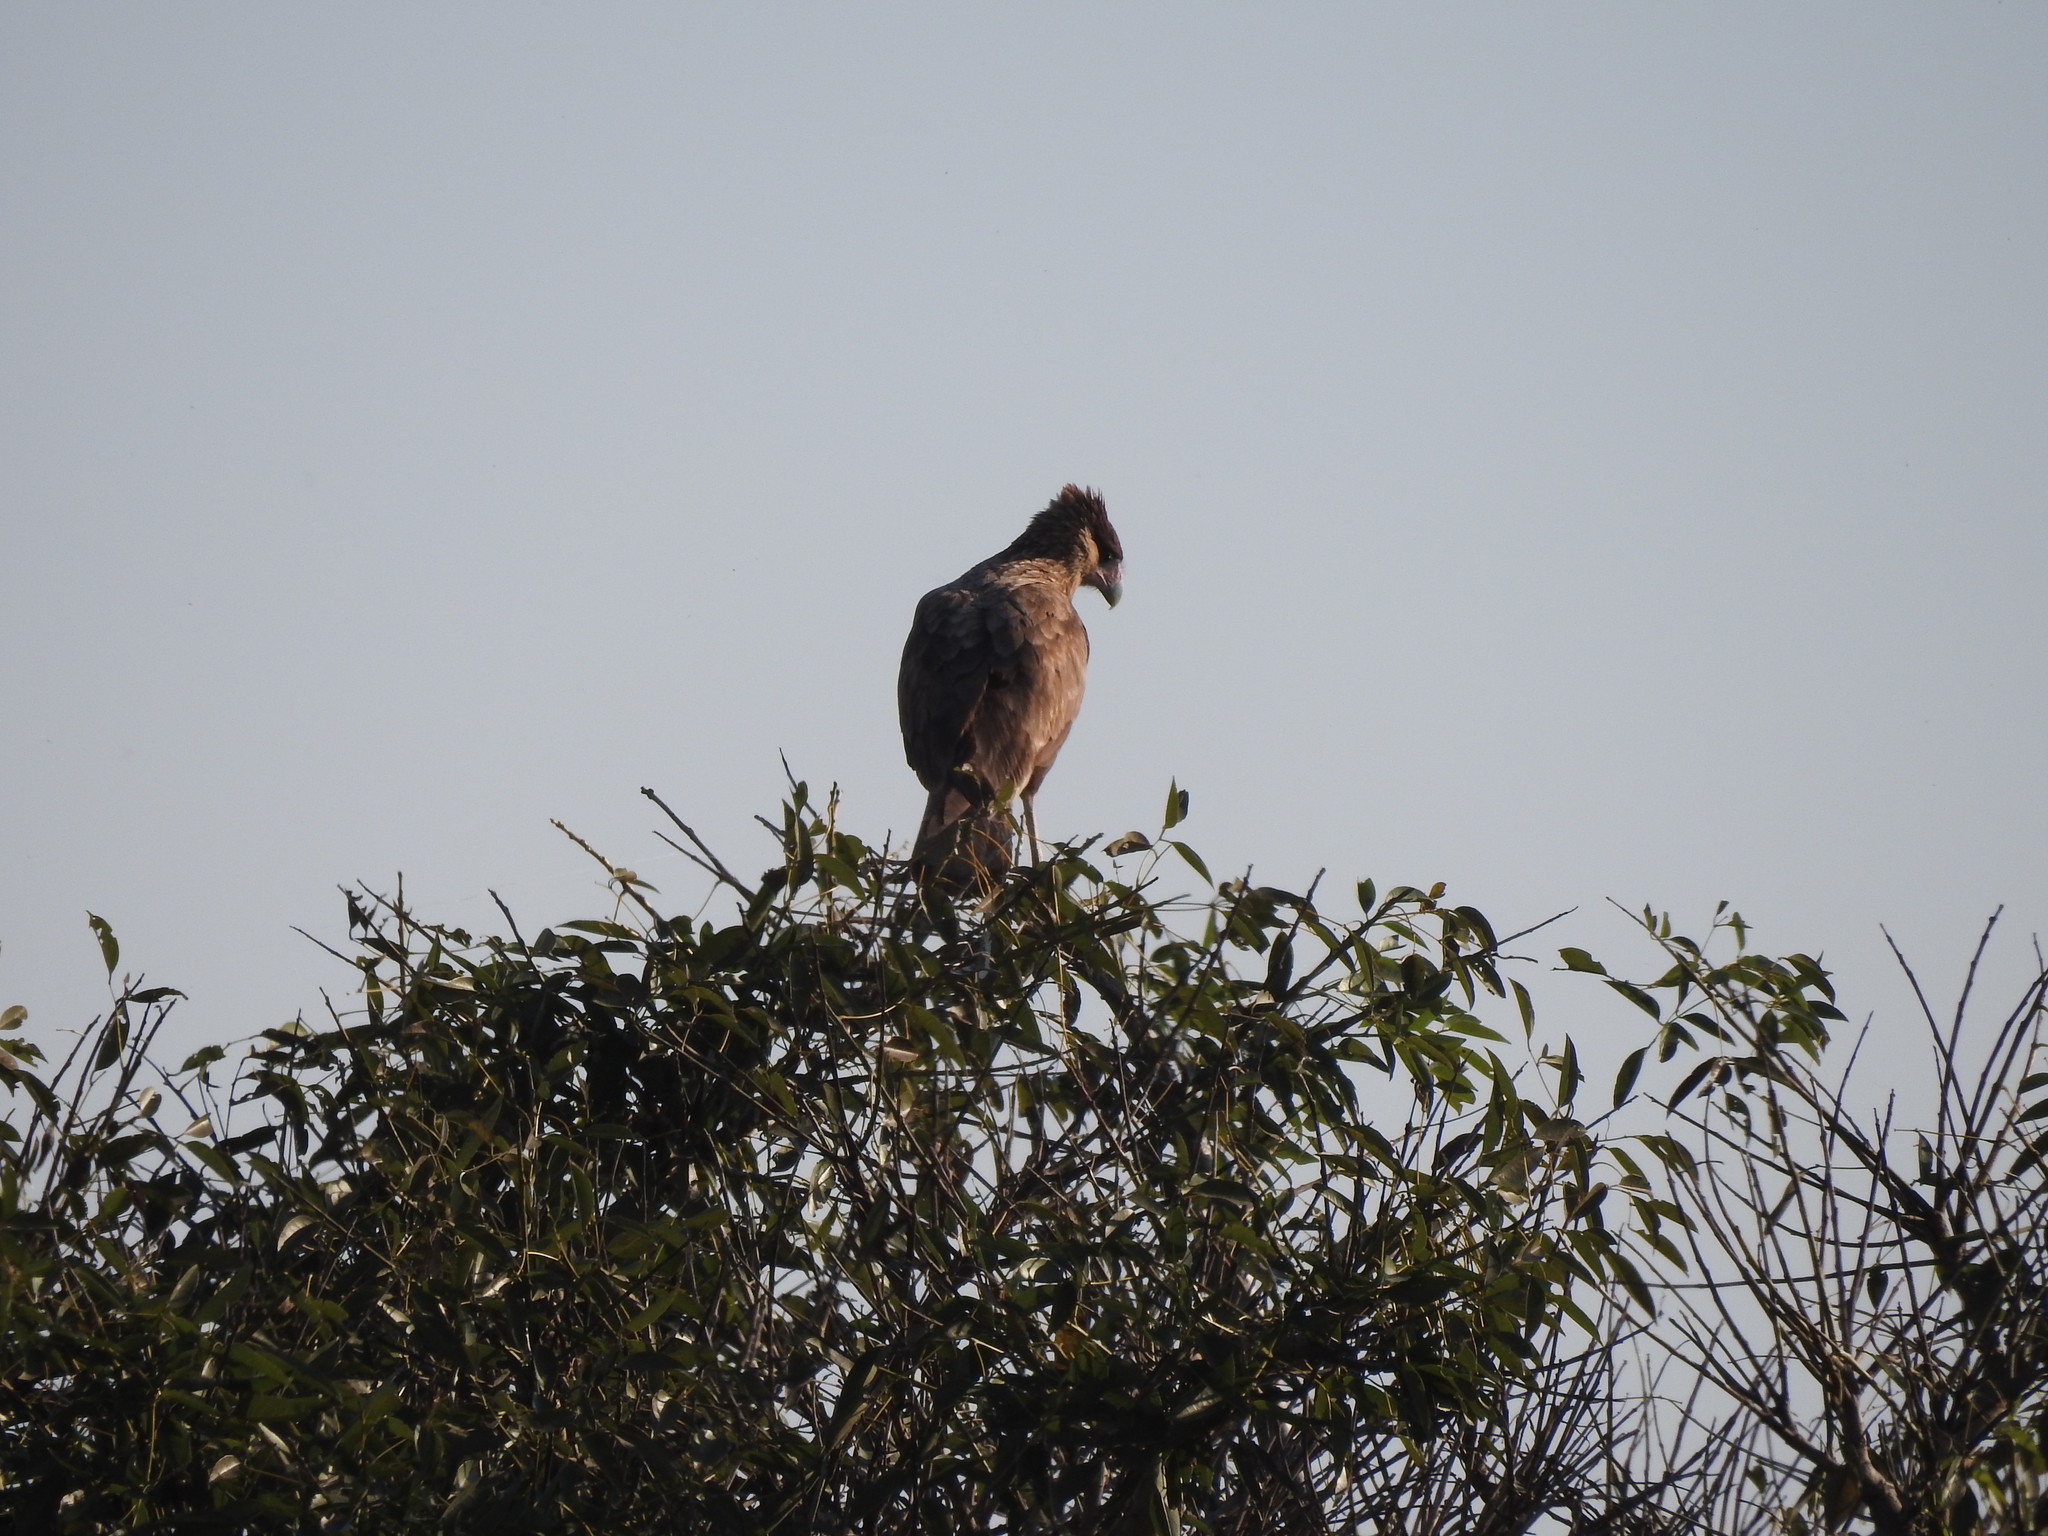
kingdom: Animalia
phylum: Chordata
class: Aves
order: Falconiformes
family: Falconidae
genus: Caracara
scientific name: Caracara plancus
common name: Southern caracara
